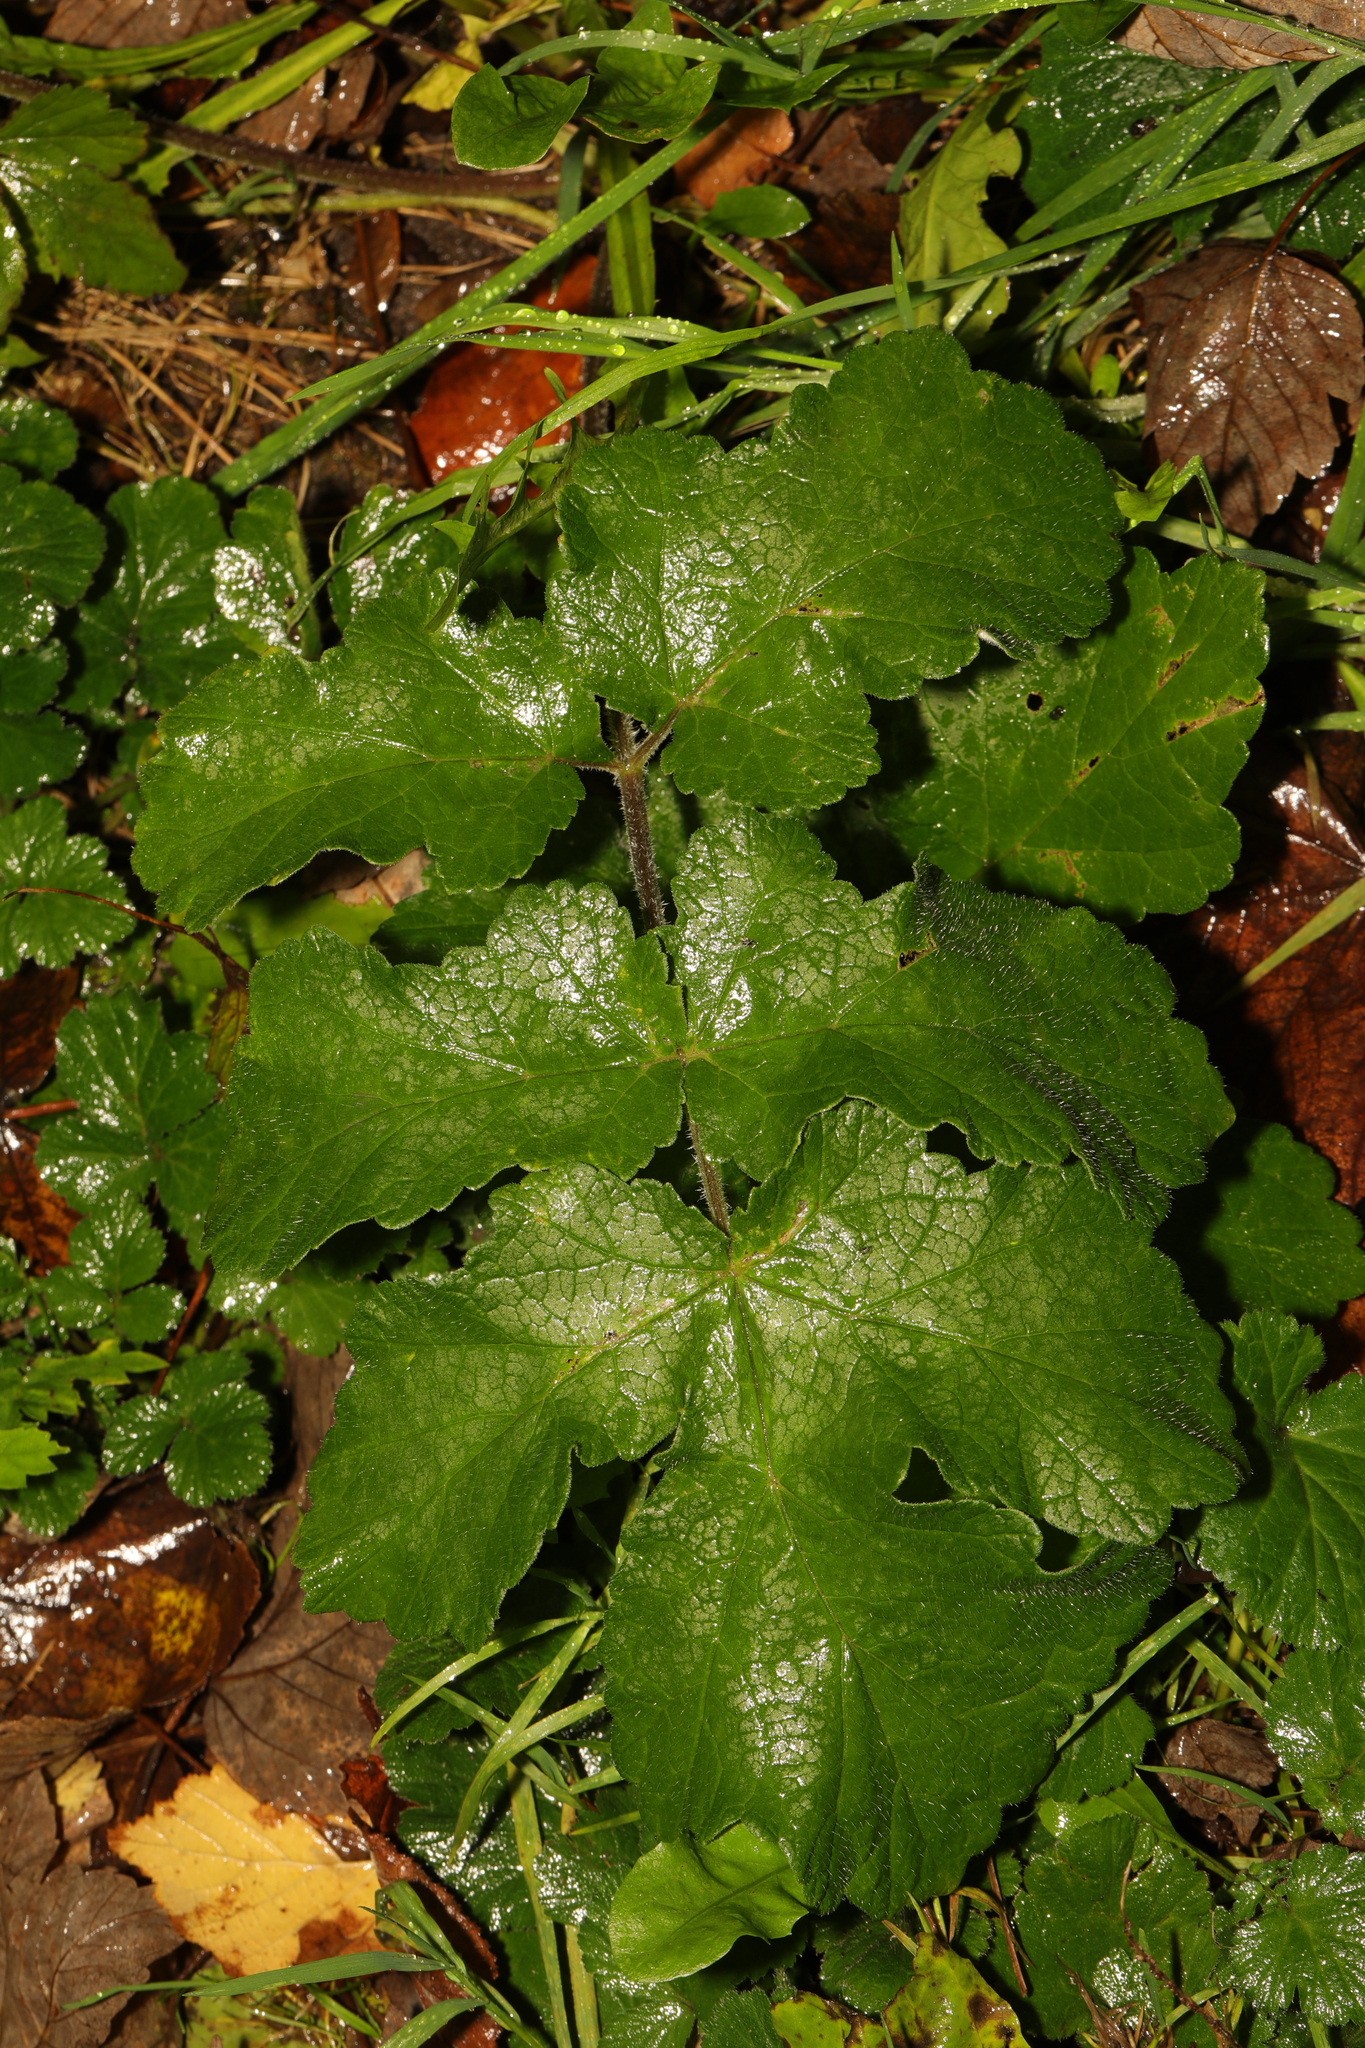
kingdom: Plantae
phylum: Tracheophyta
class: Magnoliopsida
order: Apiales
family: Apiaceae
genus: Heracleum
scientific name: Heracleum sphondylium
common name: Hogweed
